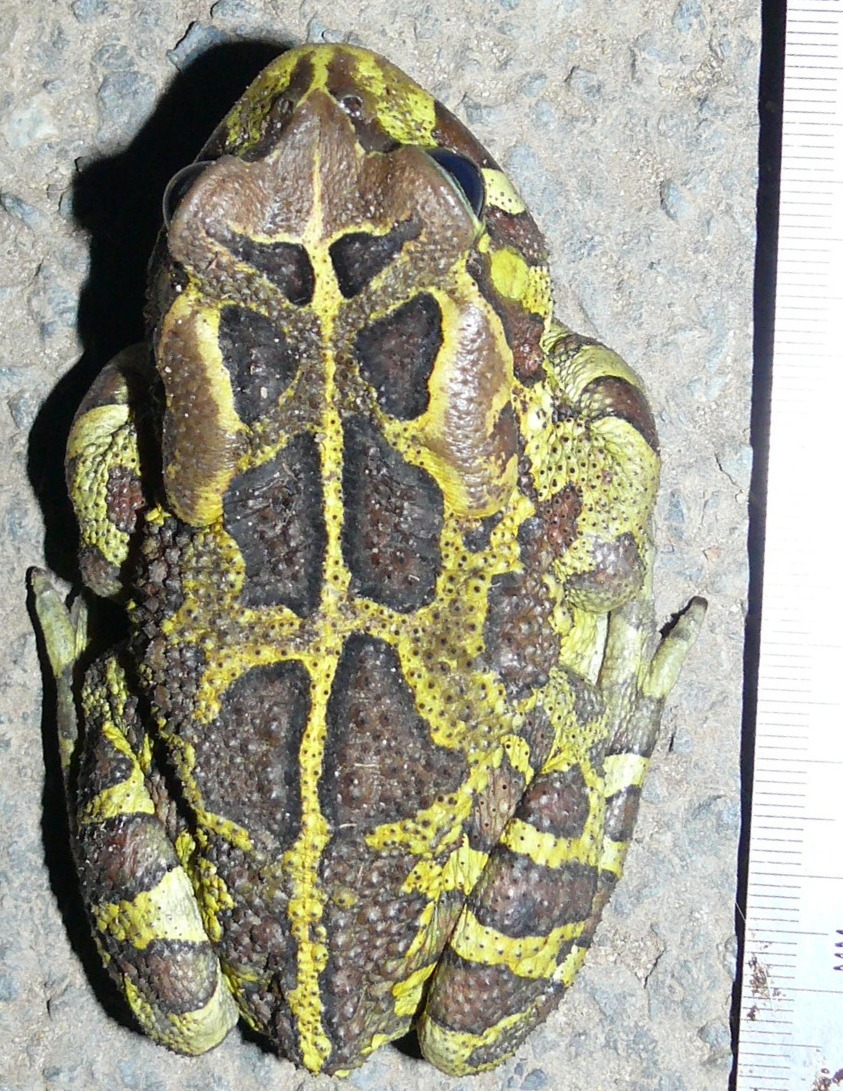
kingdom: Animalia
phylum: Chordata
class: Amphibia
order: Anura
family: Bufonidae
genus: Sclerophrys
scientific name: Sclerophrys pantherina
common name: Panther toad
